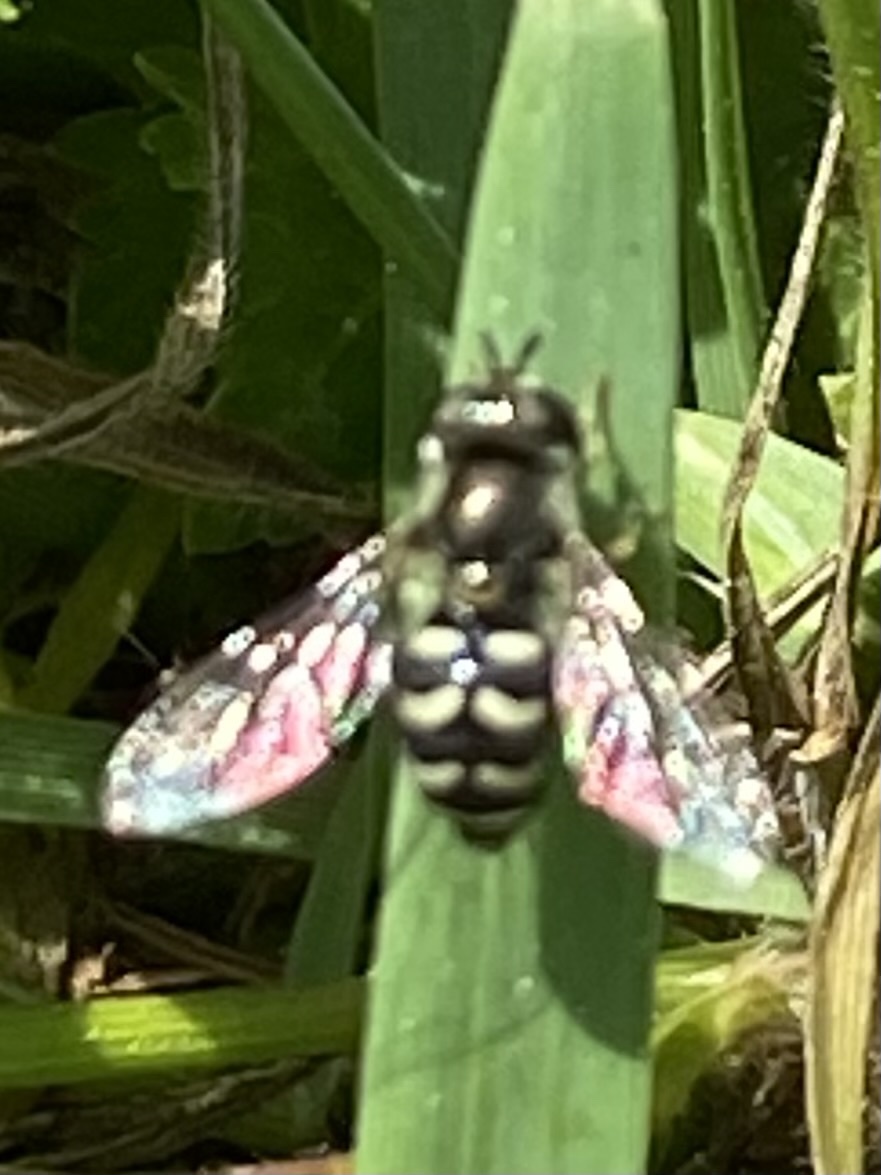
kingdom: Animalia
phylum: Arthropoda
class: Insecta
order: Diptera
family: Syrphidae
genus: Eupeodes
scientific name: Eupeodes volucris
